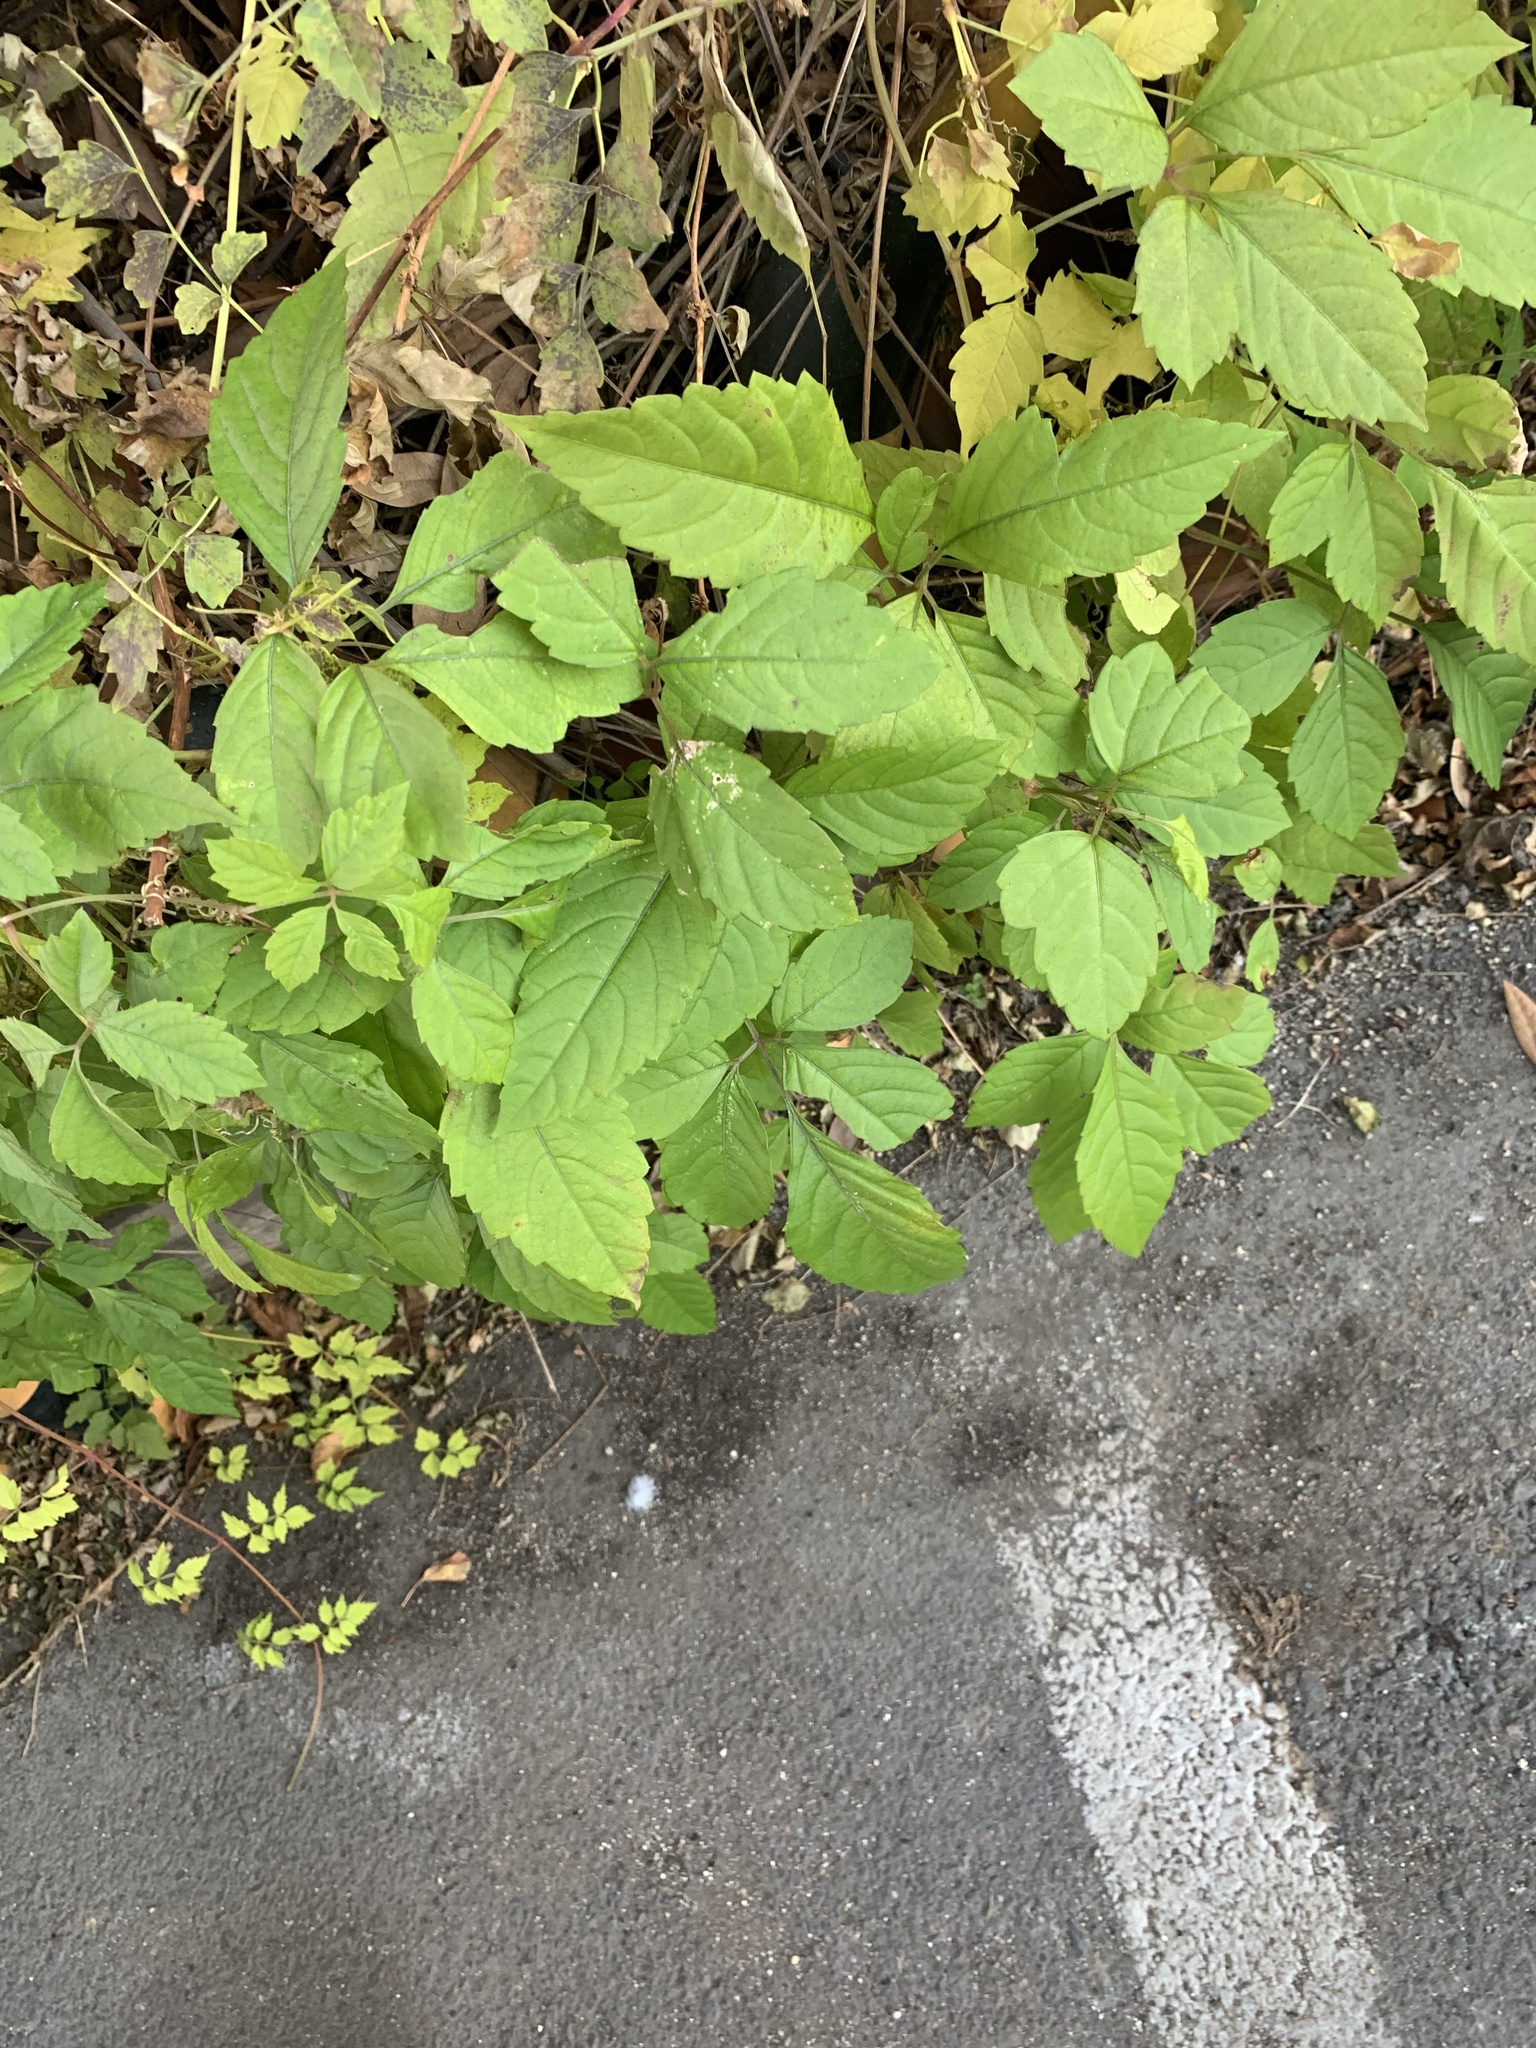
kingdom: Plantae
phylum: Tracheophyta
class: Magnoliopsida
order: Vitales
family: Vitaceae
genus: Causonis
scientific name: Causonis japonica
